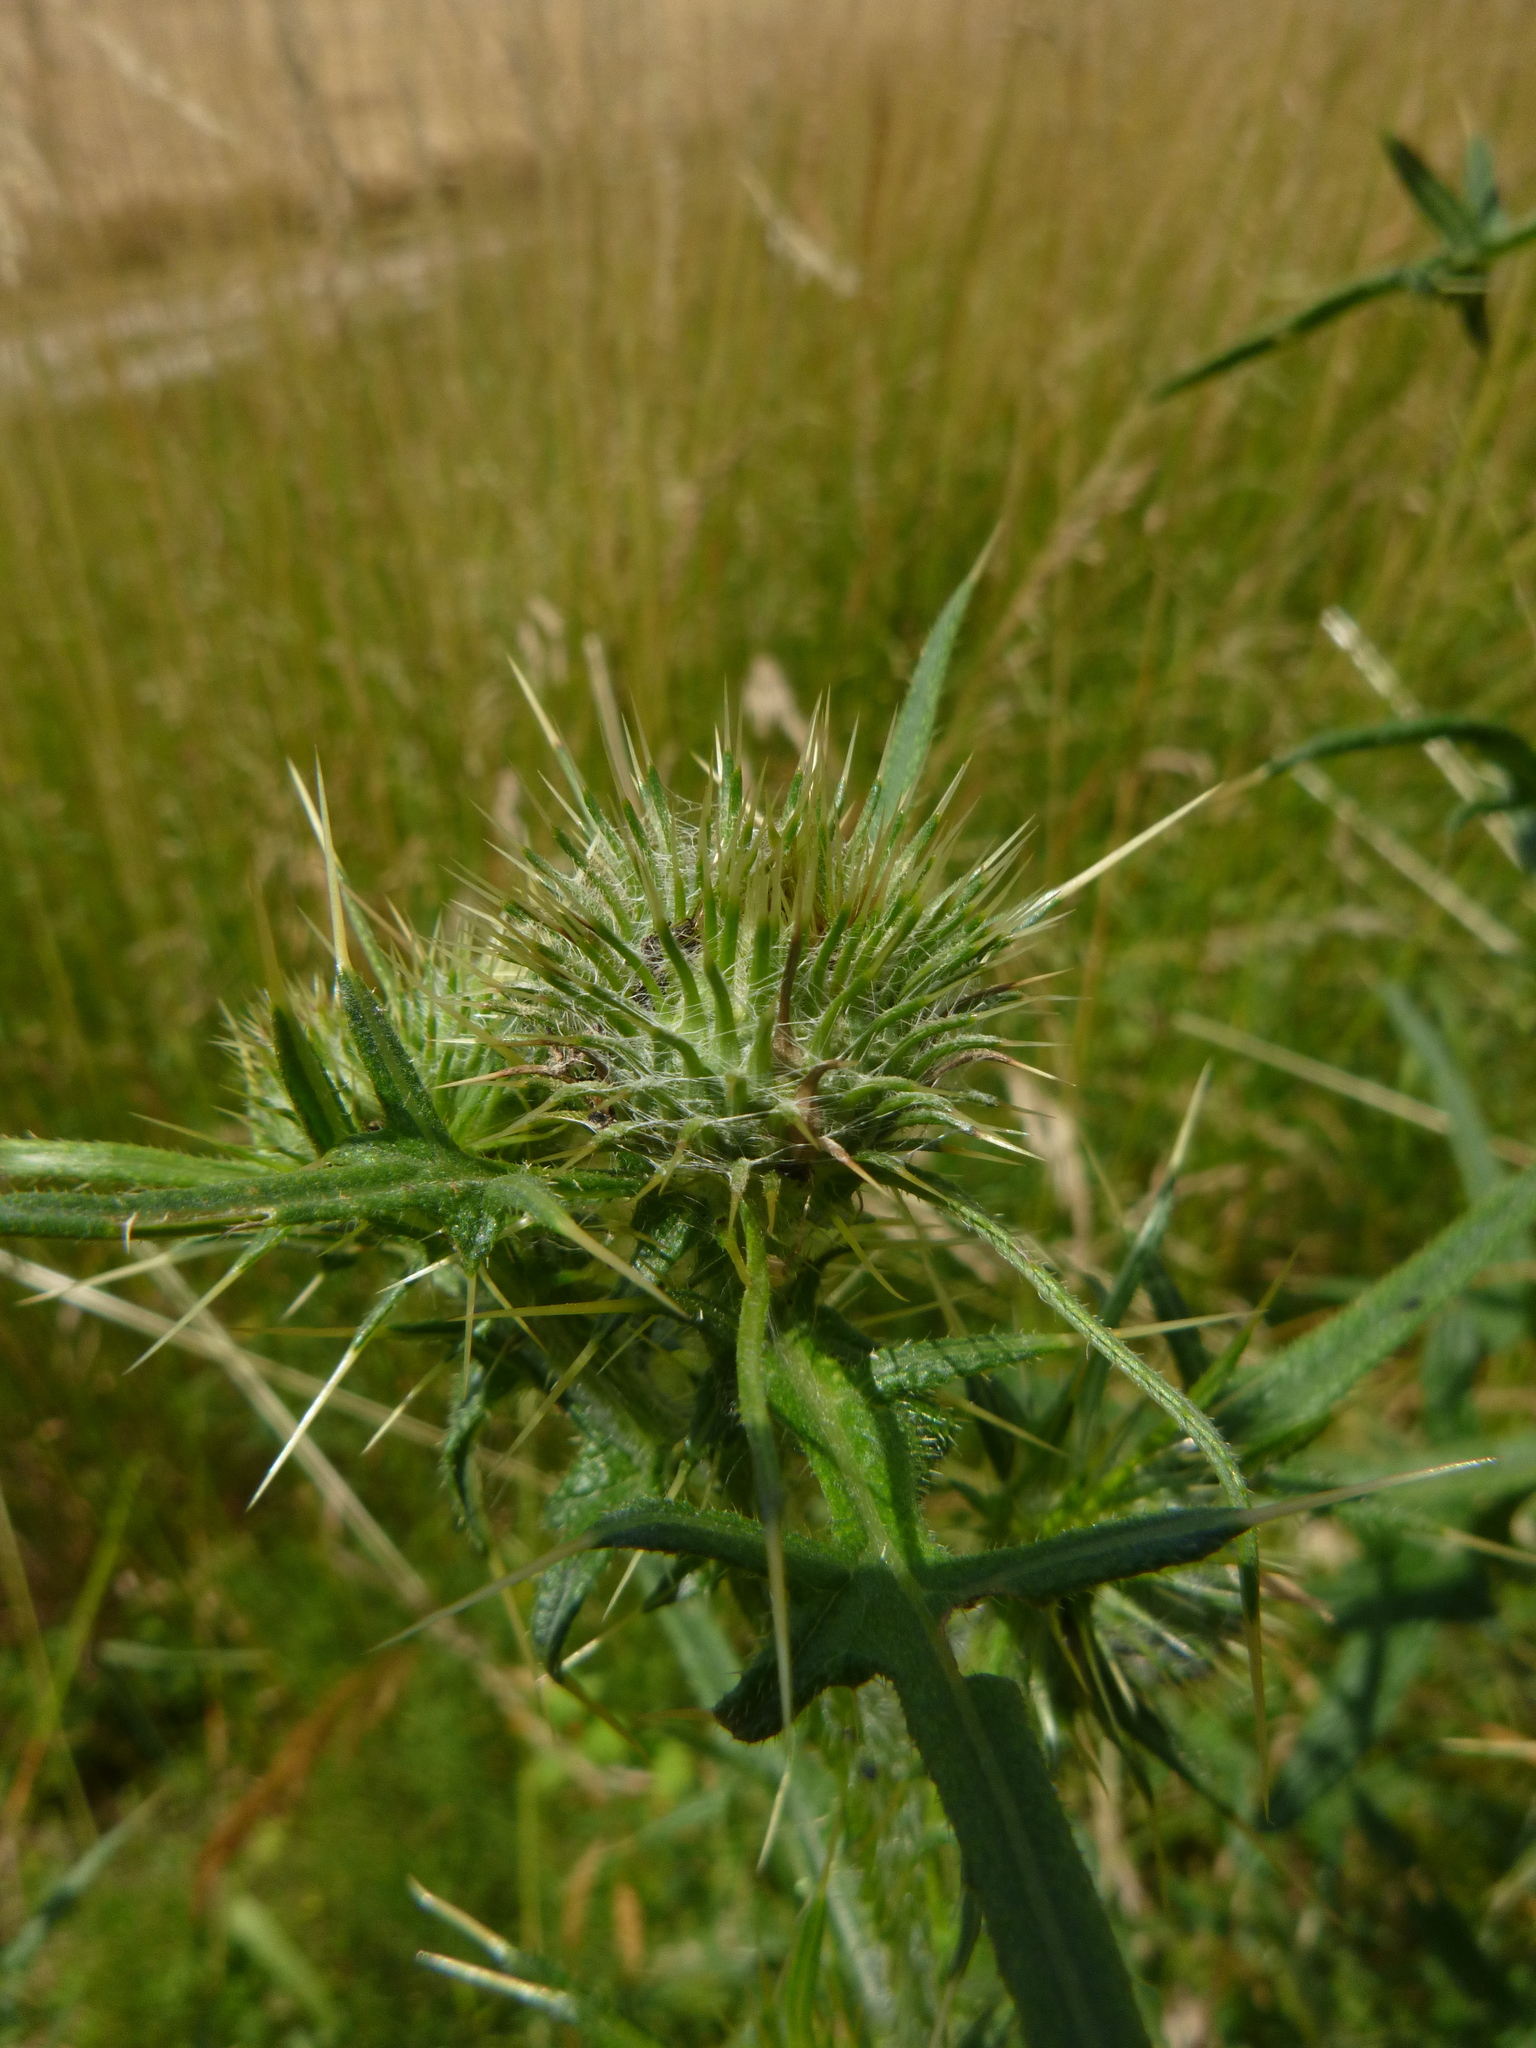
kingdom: Plantae
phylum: Tracheophyta
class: Magnoliopsida
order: Asterales
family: Asteraceae
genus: Cirsium
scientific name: Cirsium vulgare
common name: Bull thistle
